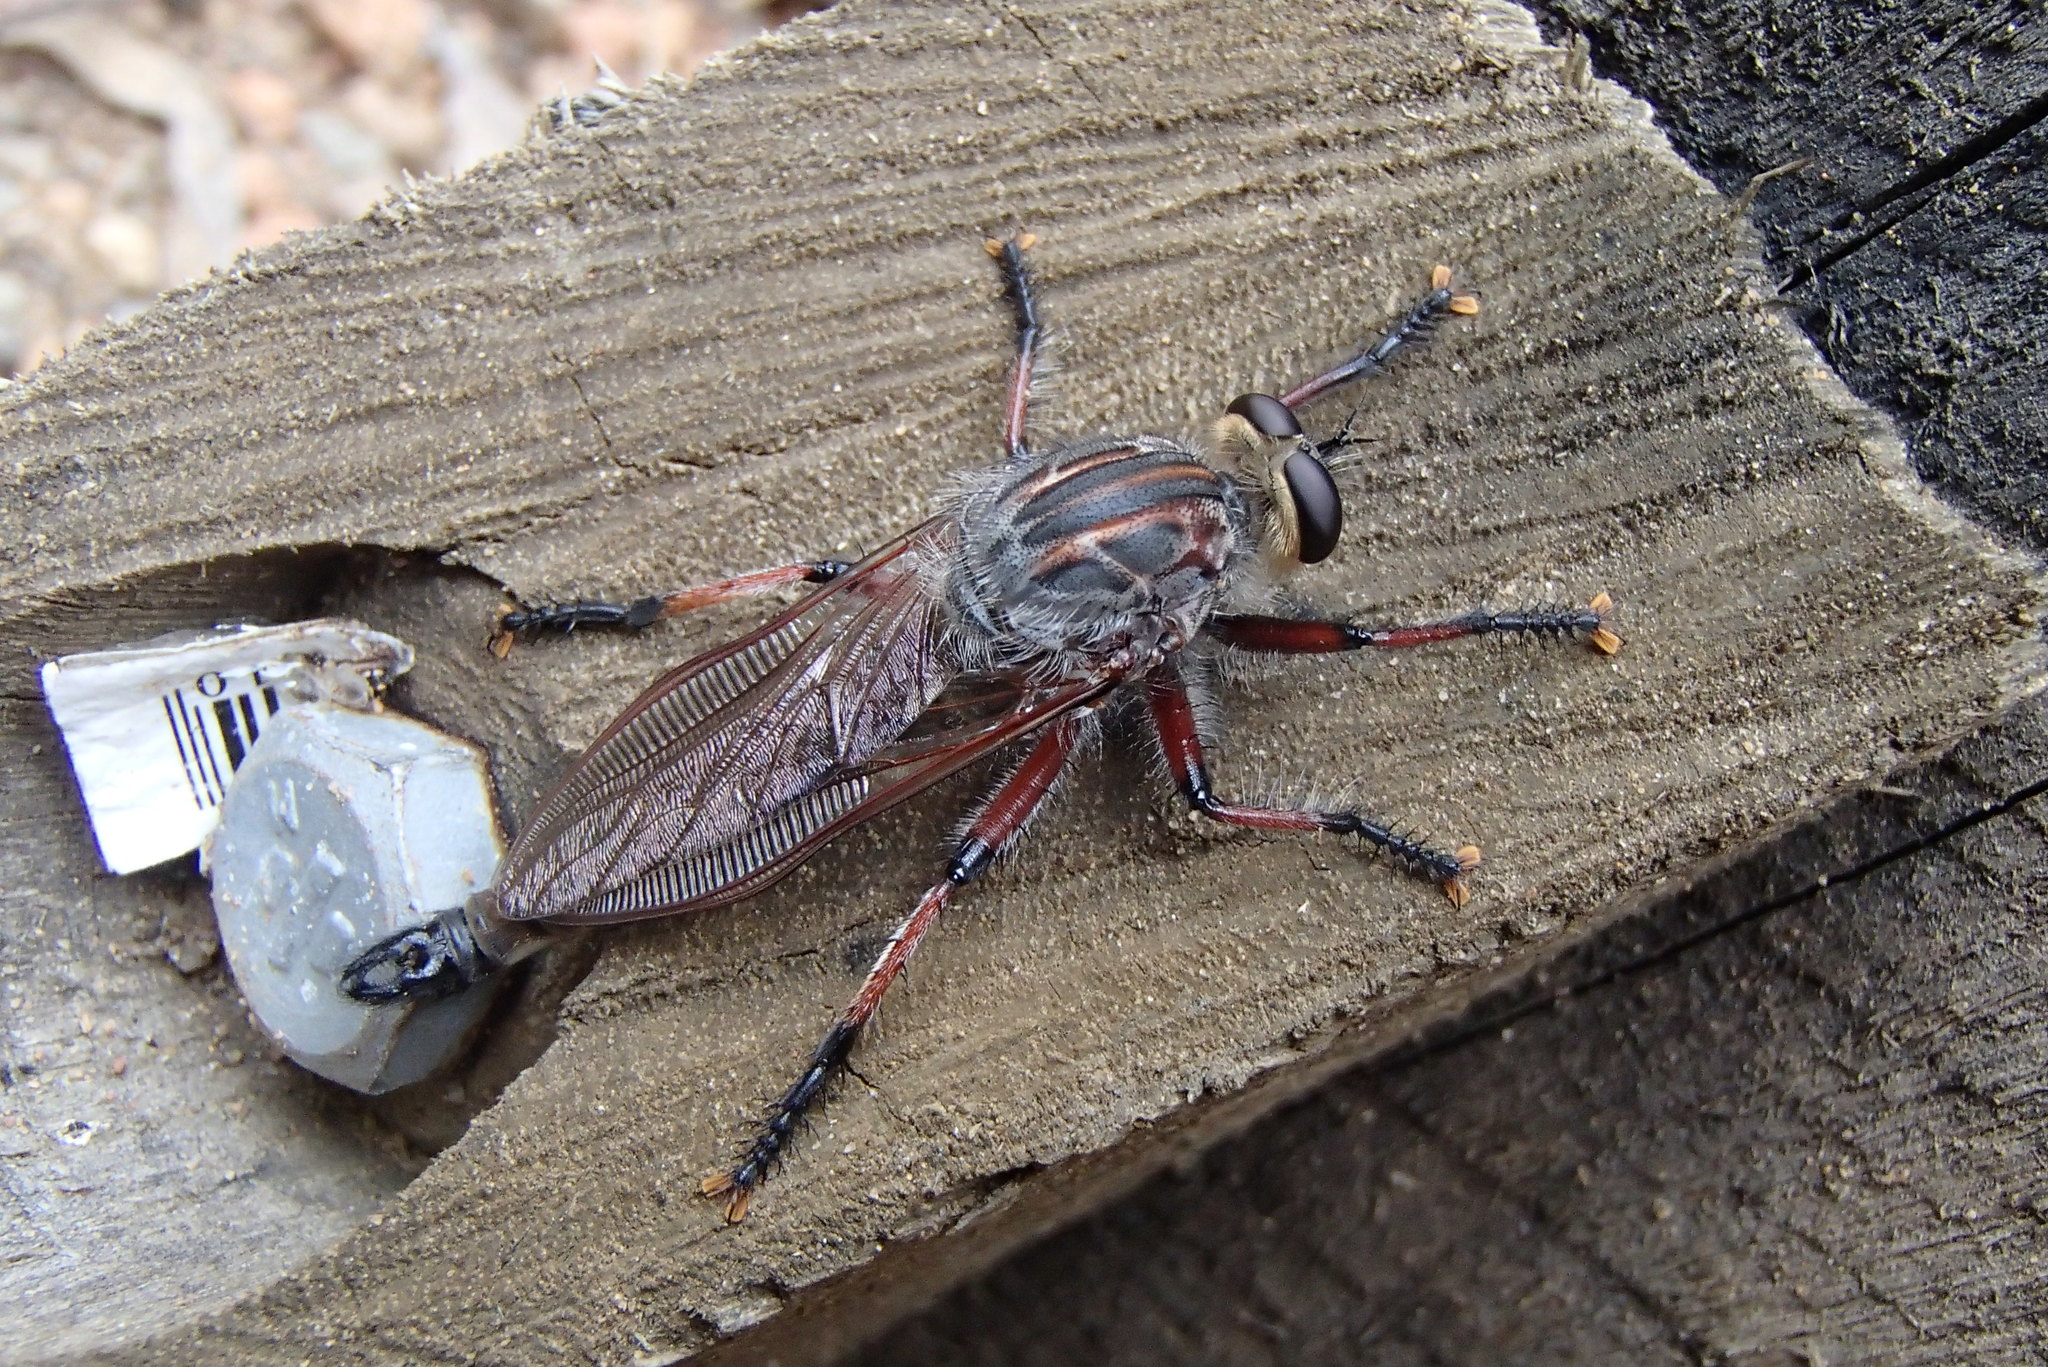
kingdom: Animalia
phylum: Arthropoda
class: Insecta
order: Diptera
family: Asilidae
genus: Neoaratus
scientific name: Neoaratus hercules
